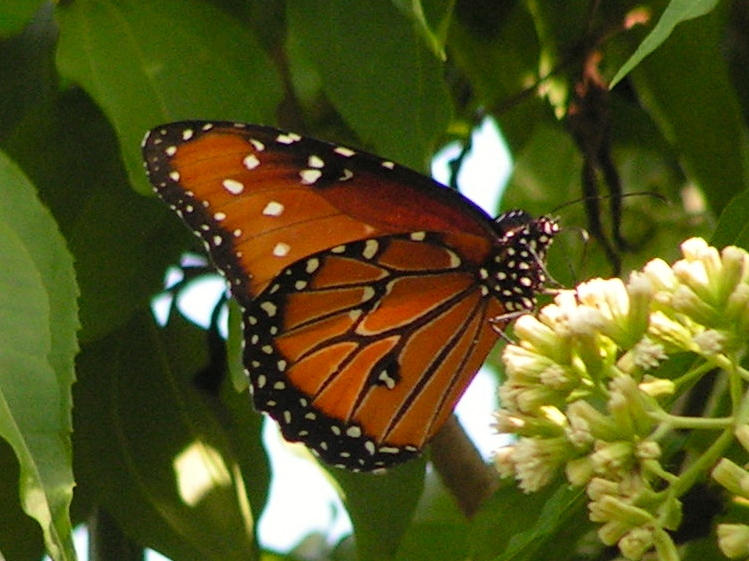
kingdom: Animalia
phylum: Arthropoda
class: Insecta
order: Lepidoptera
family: Nymphalidae
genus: Danaus
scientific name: Danaus gilippus
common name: Queen
